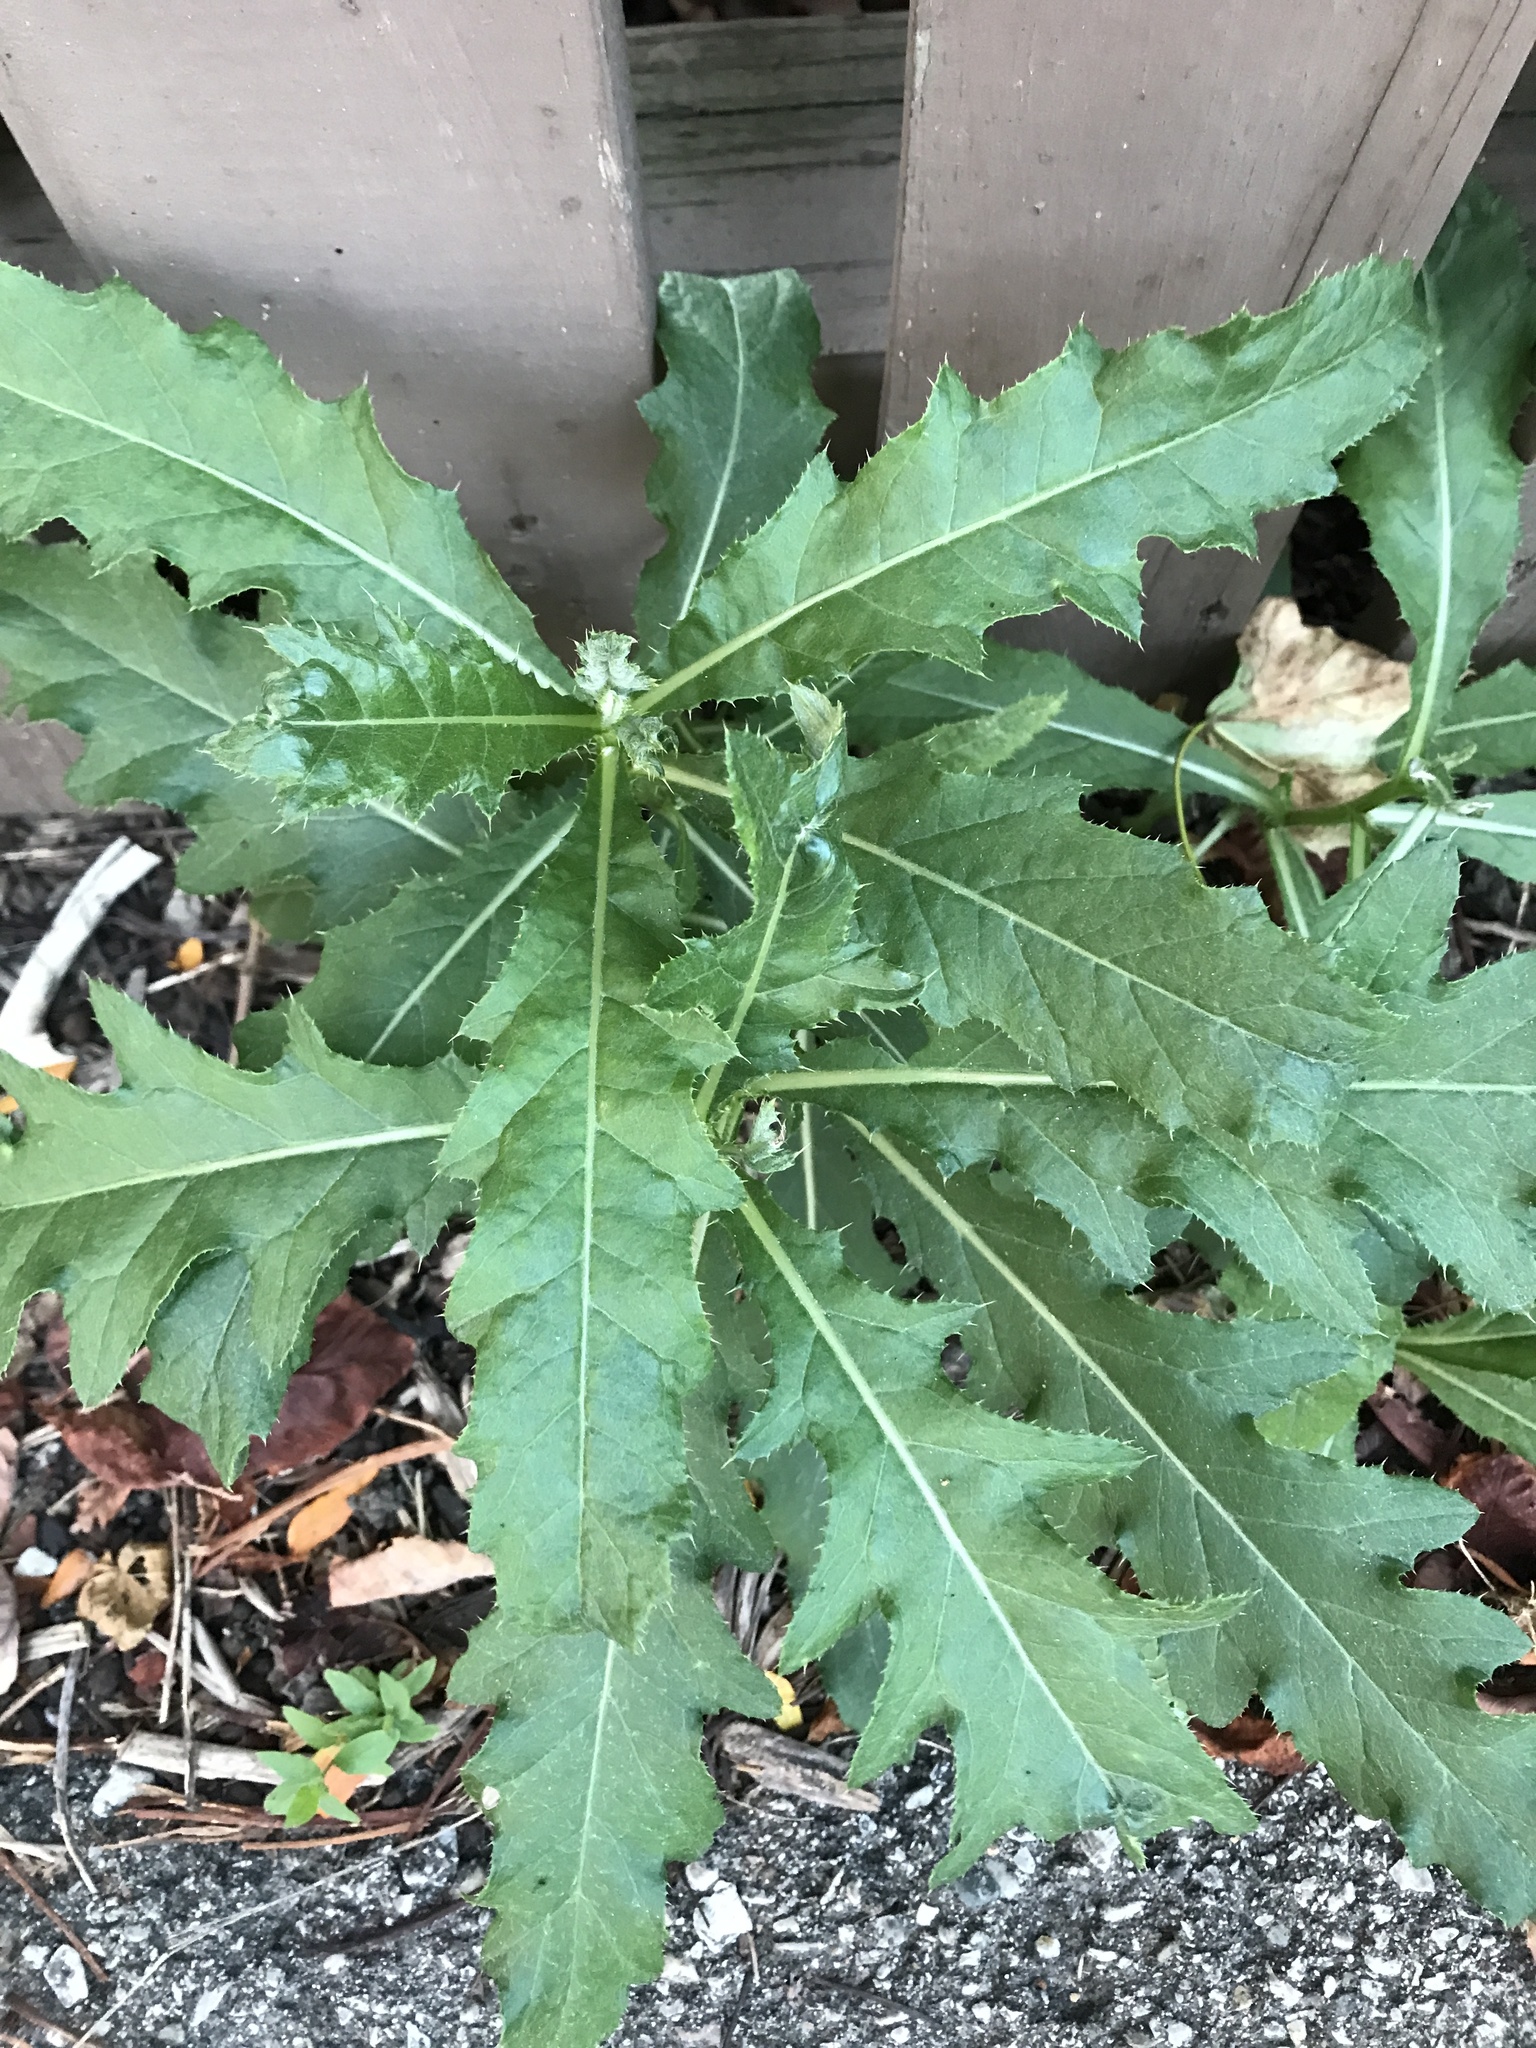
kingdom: Plantae
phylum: Tracheophyta
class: Magnoliopsida
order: Asterales
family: Asteraceae
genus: Cirsium
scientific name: Cirsium arvense
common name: Creeping thistle
